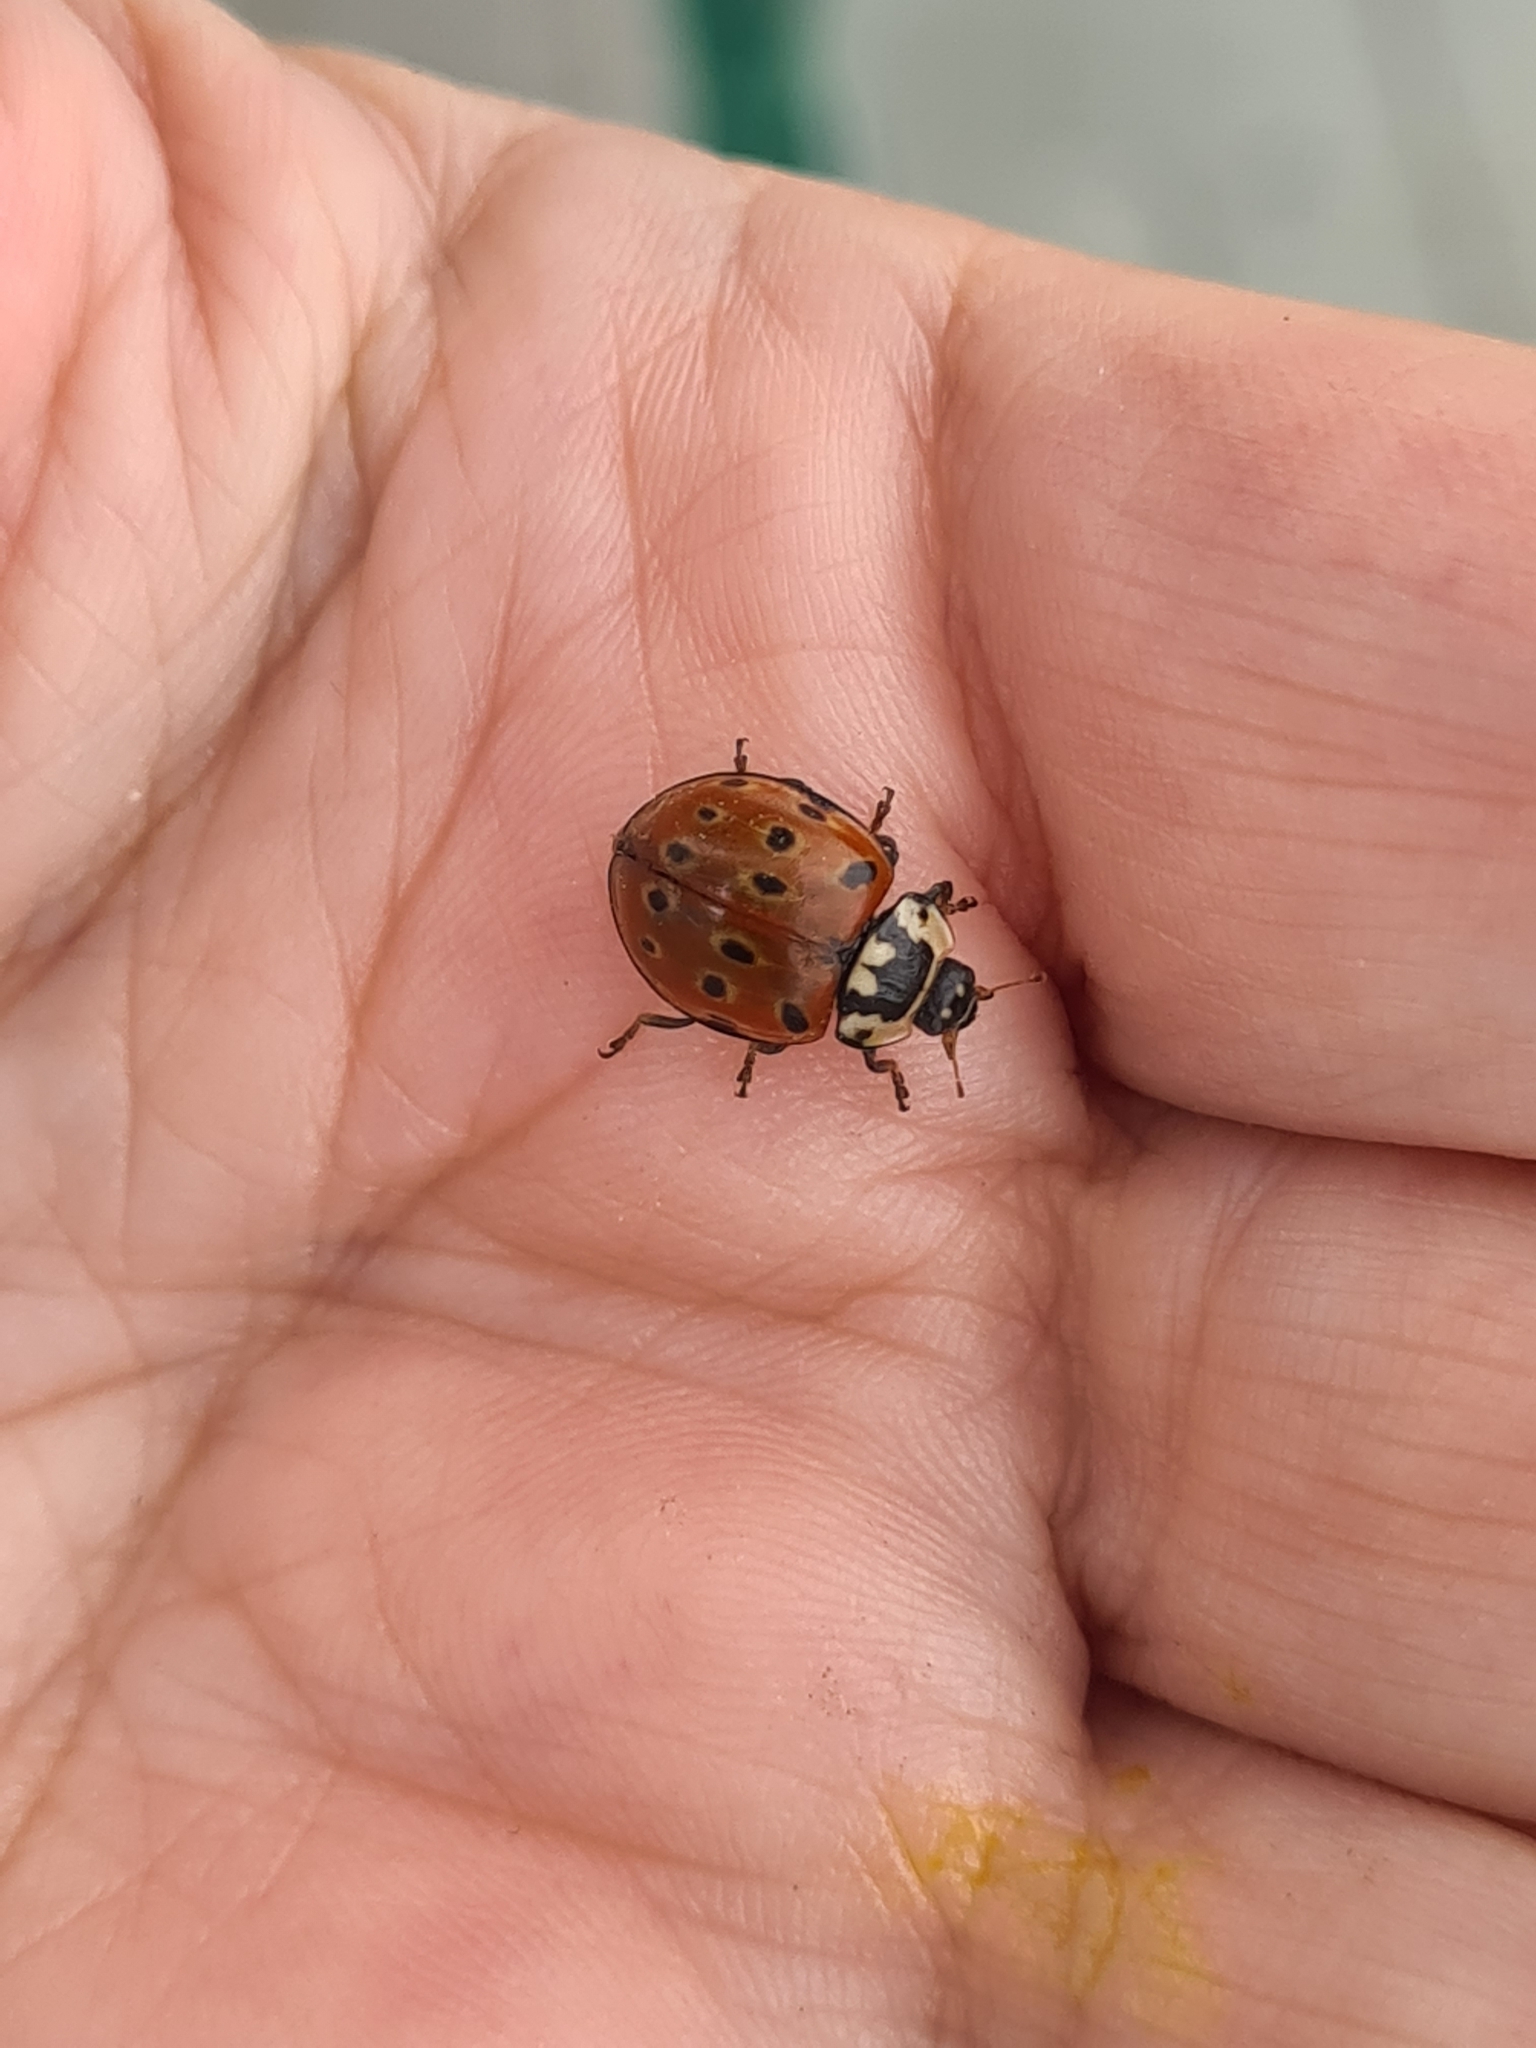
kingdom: Animalia
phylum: Arthropoda
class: Insecta
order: Coleoptera
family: Coccinellidae
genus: Anatis
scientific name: Anatis ocellata
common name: Eyed ladybird
